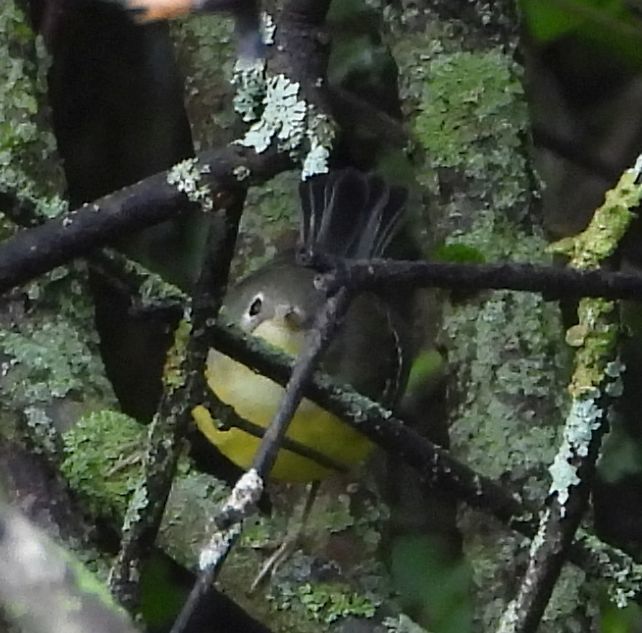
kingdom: Animalia
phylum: Chordata
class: Aves
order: Passeriformes
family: Parulidae
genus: Setophaga
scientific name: Setophaga magnolia
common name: Magnolia warbler
